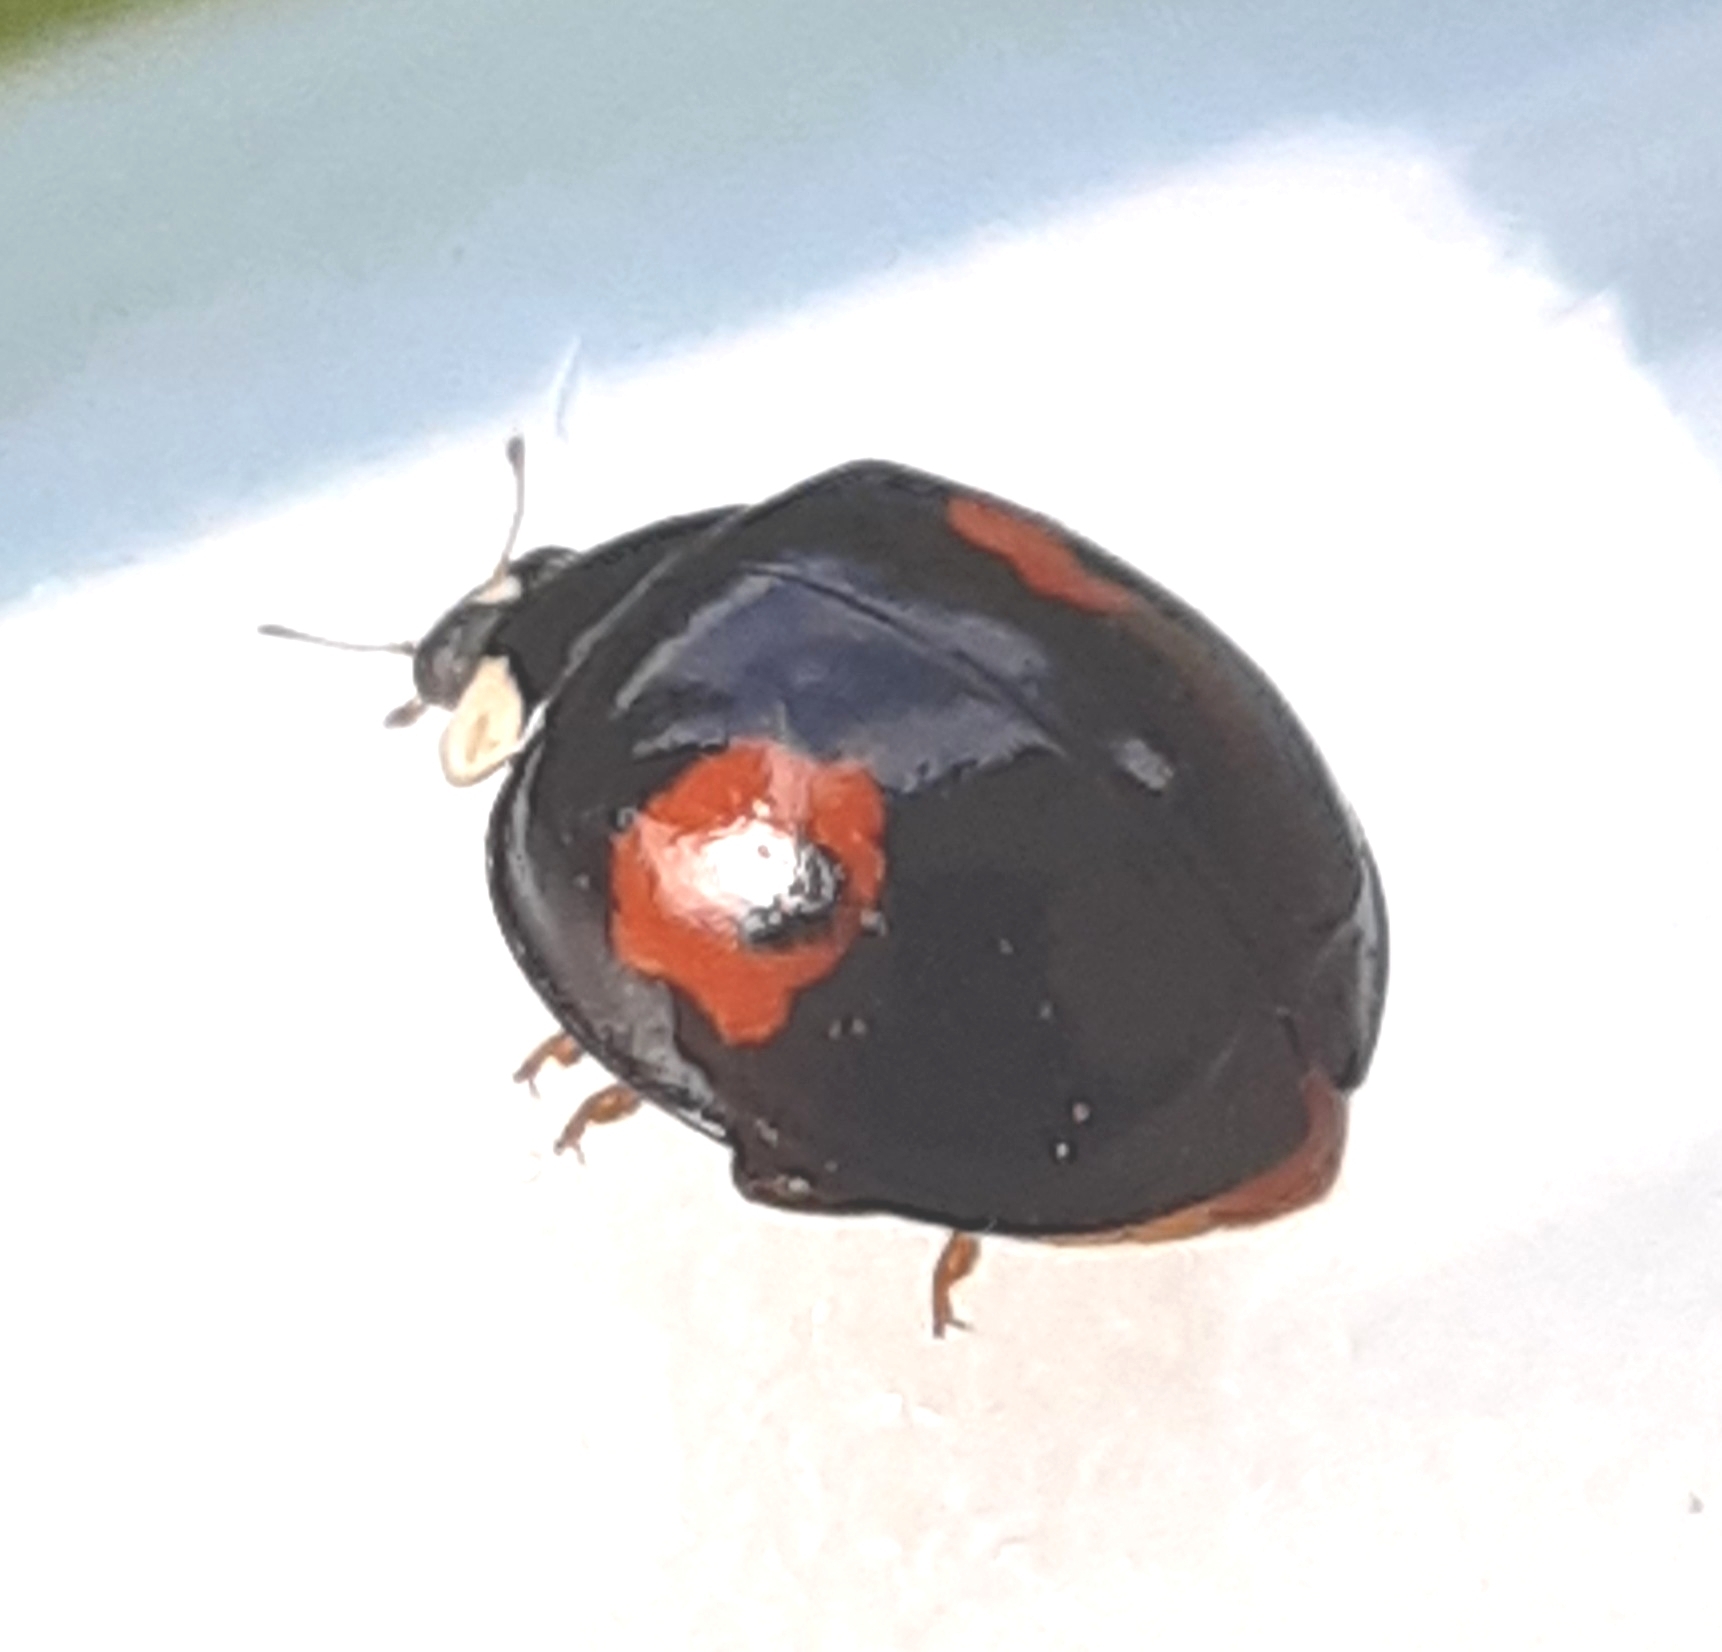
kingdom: Animalia
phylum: Arthropoda
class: Insecta
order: Coleoptera
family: Coccinellidae
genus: Harmonia
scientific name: Harmonia axyridis
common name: Harlequin ladybird
